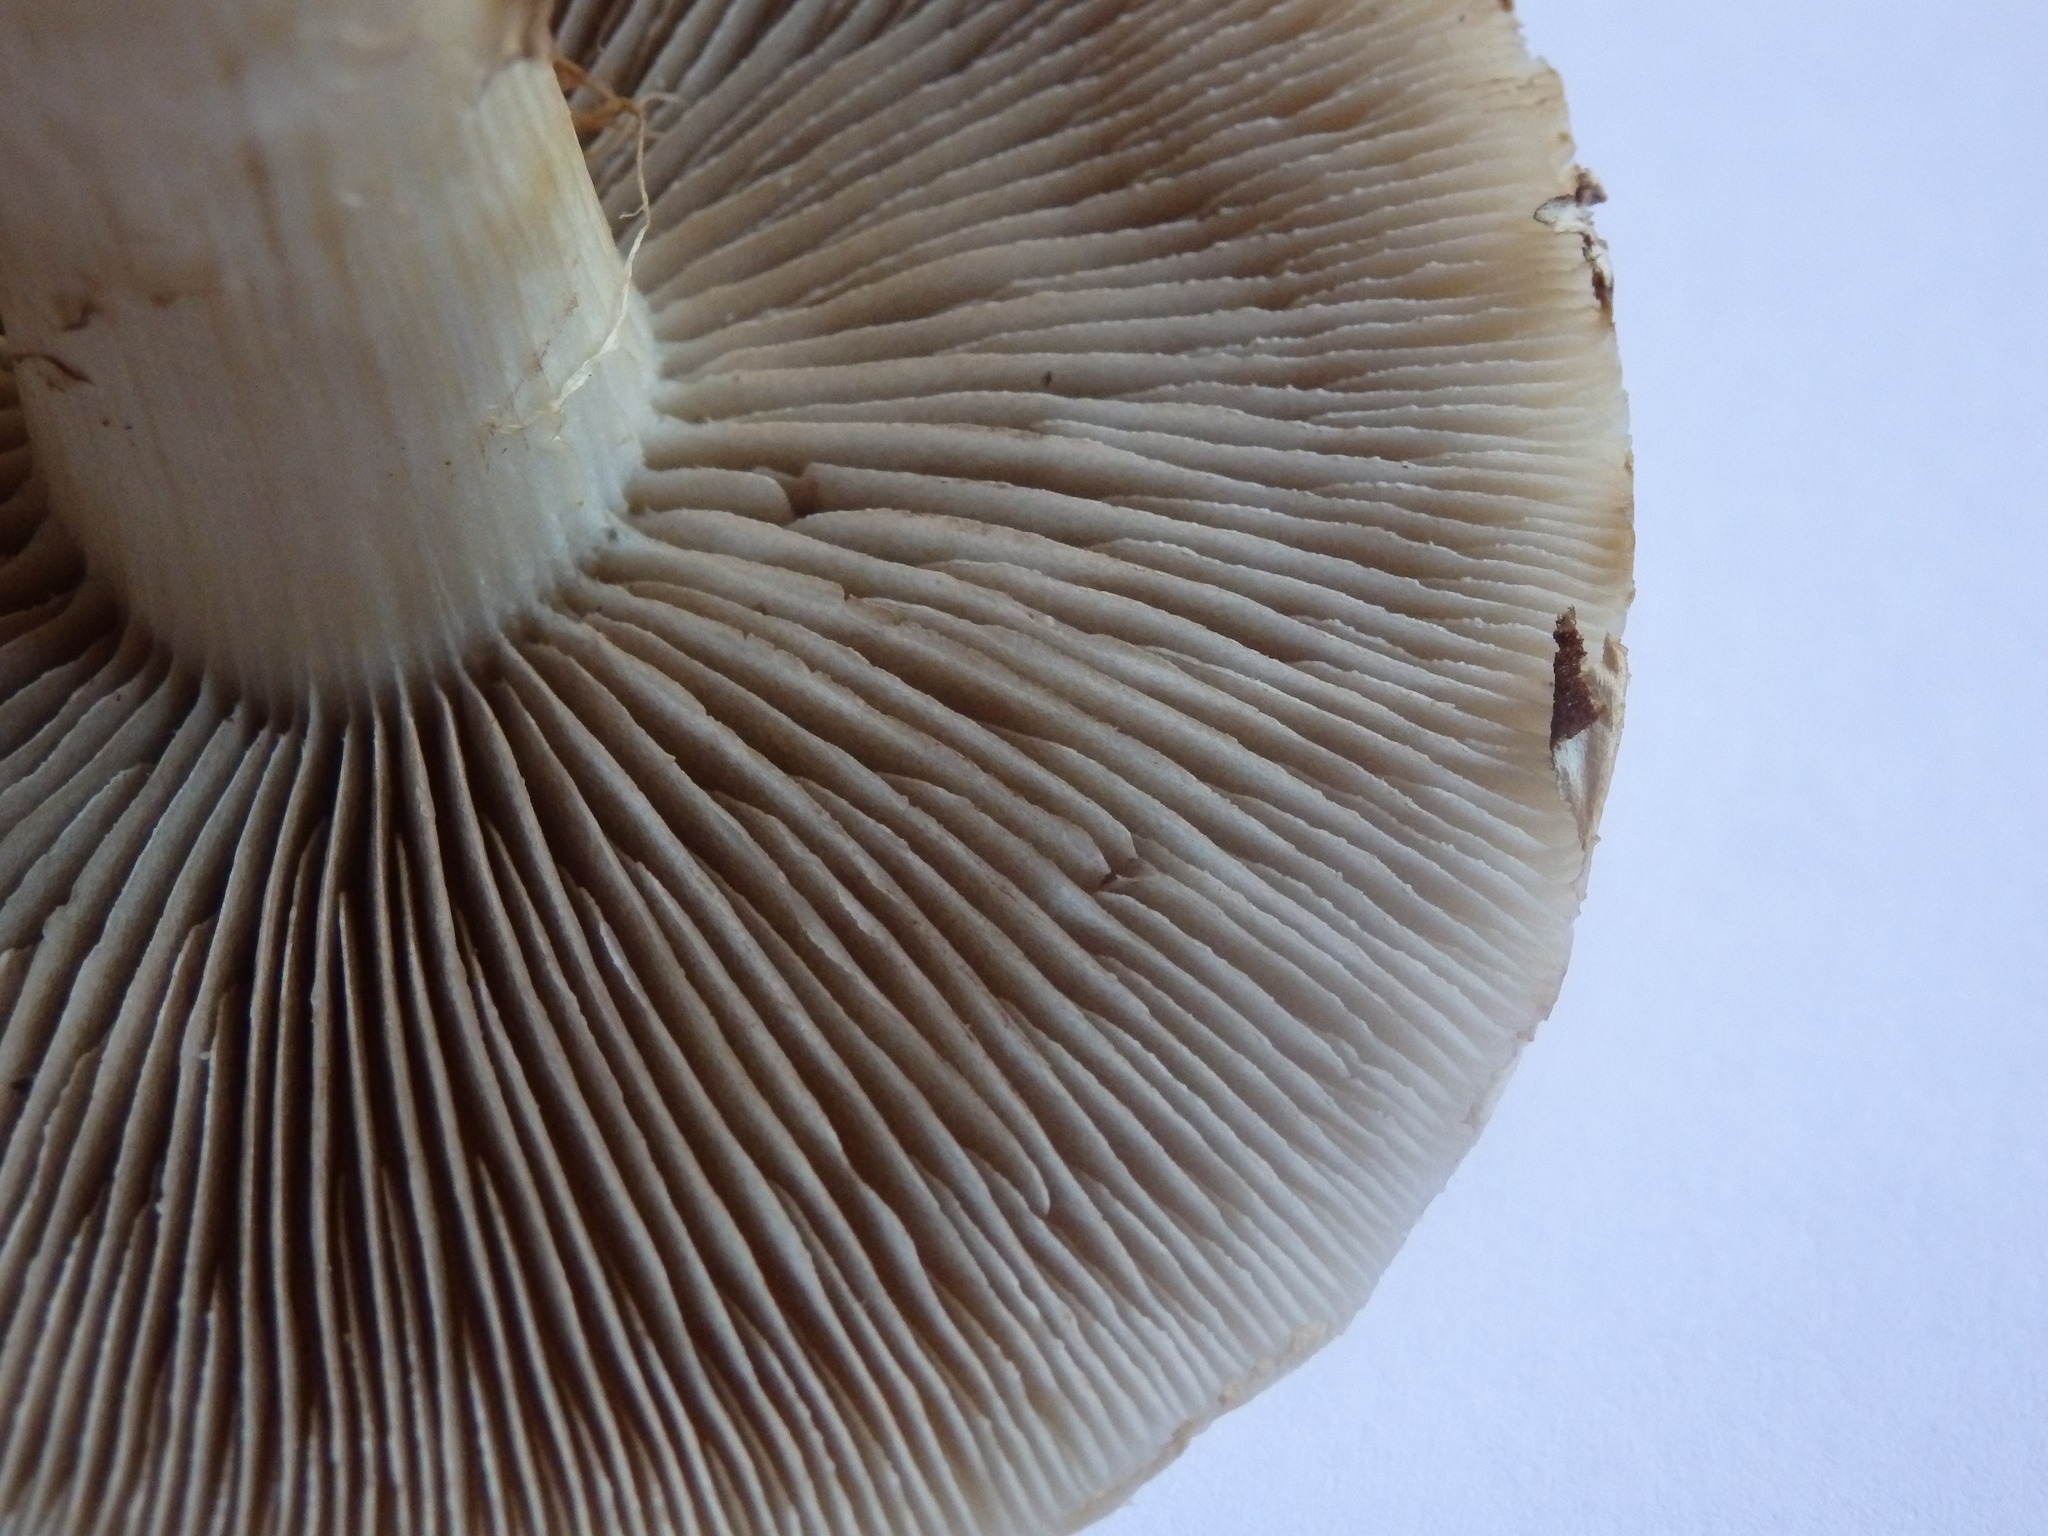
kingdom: Fungi
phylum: Basidiomycota
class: Agaricomycetes
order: Agaricales
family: Strophariaceae
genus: Agrocybe
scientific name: Agrocybe praecox
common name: Spring fieldcap
